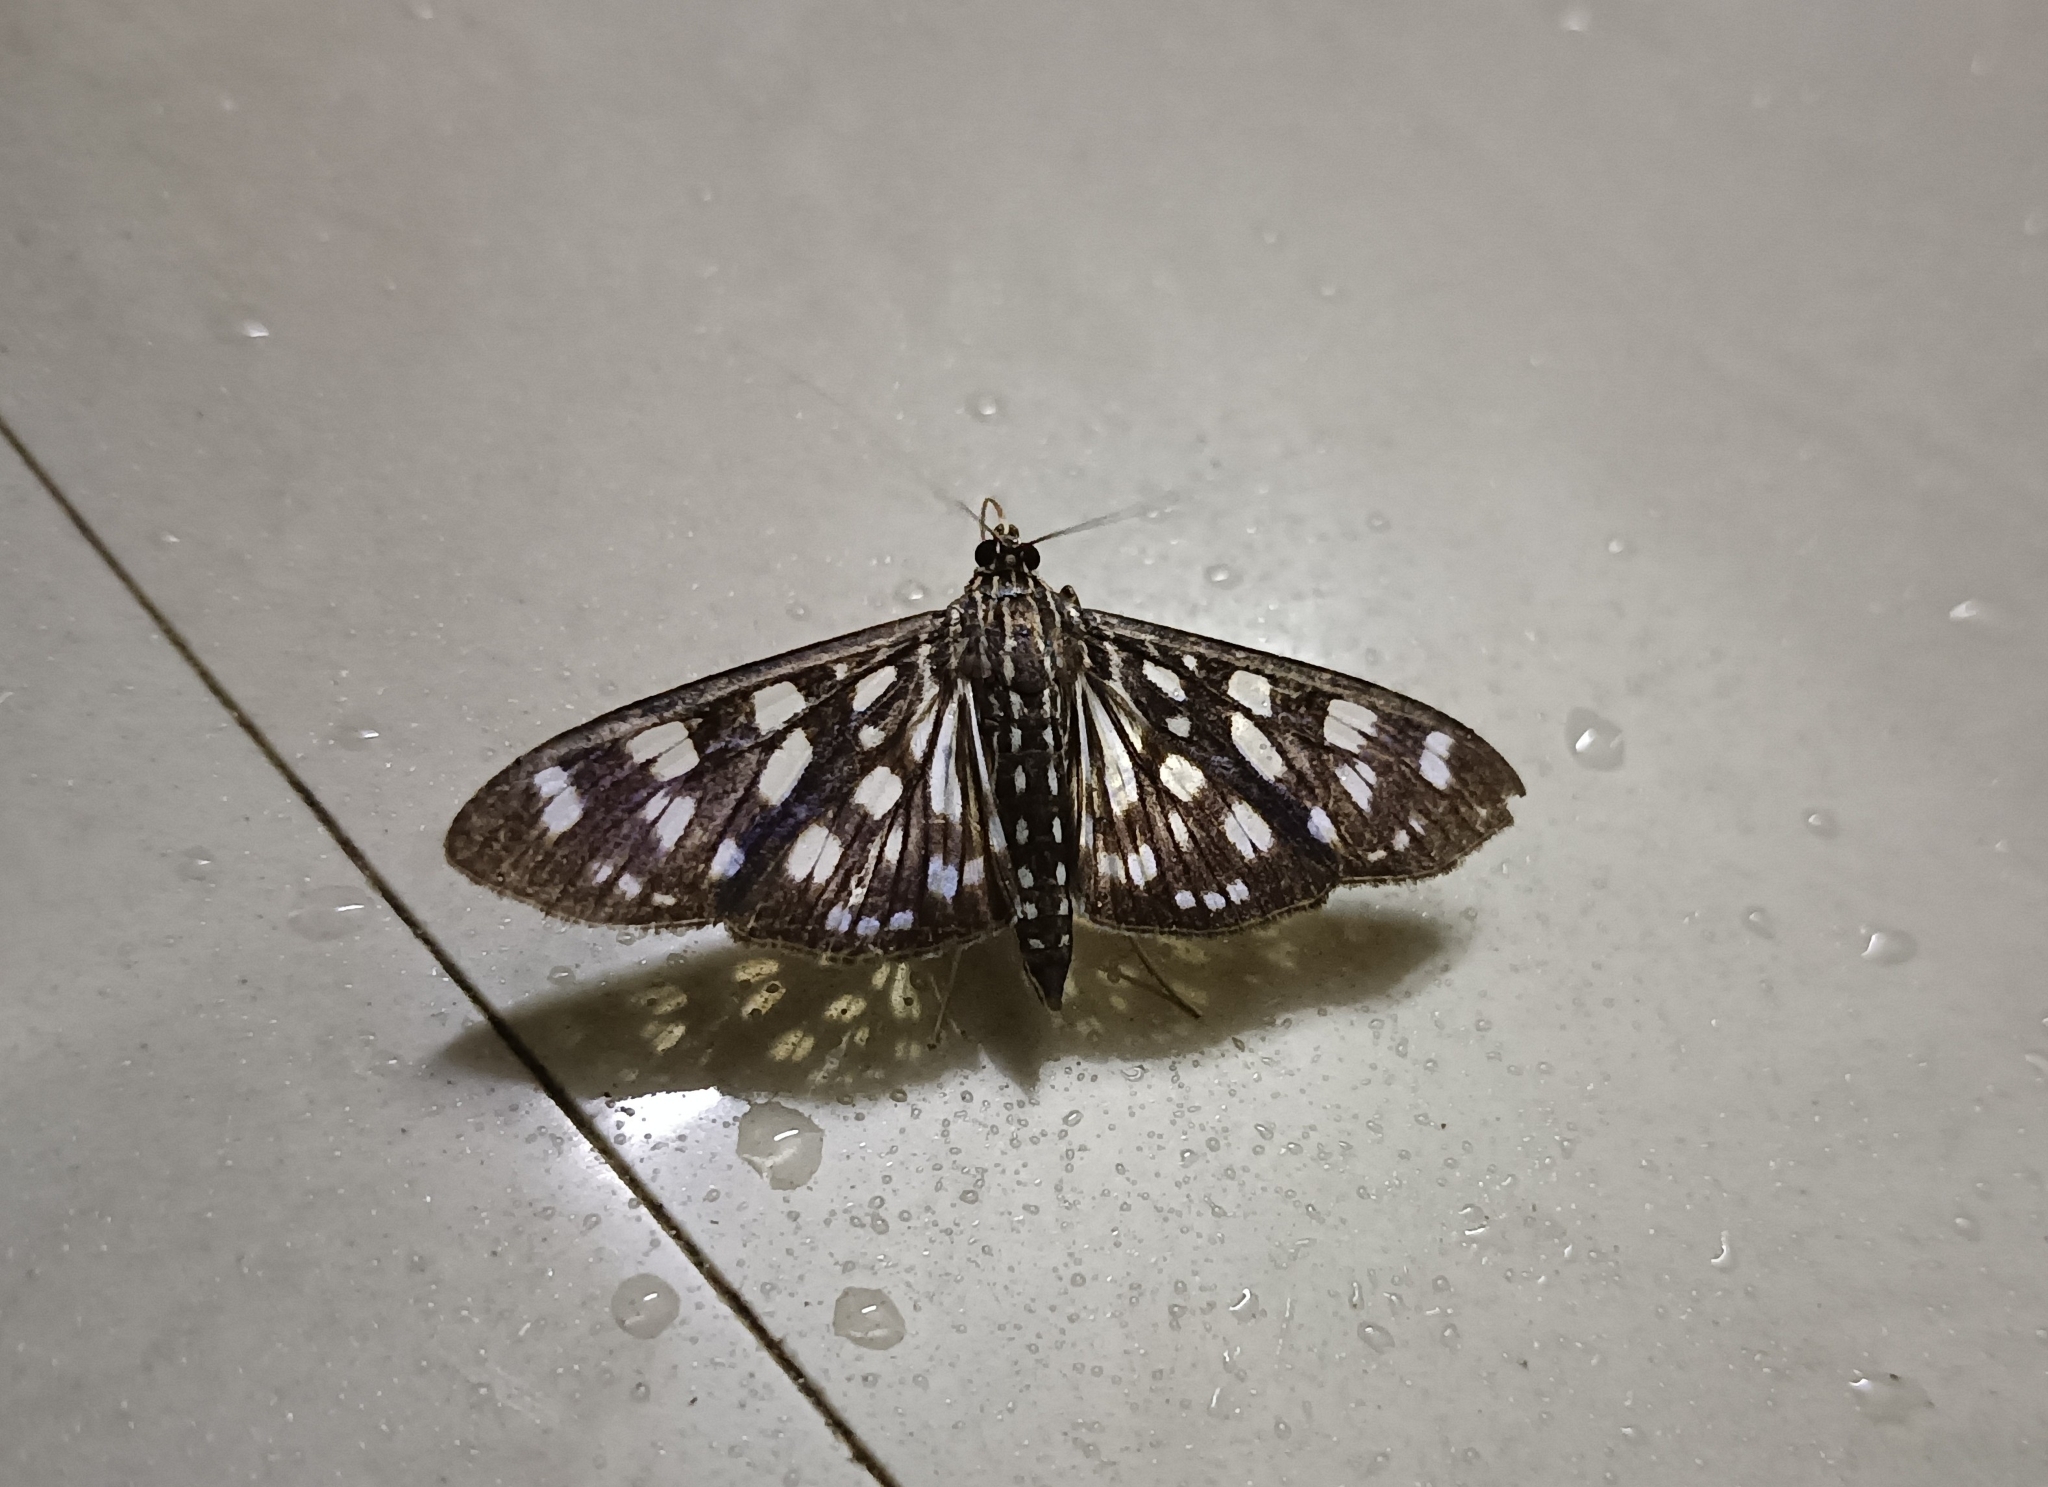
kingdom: Animalia
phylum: Arthropoda
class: Insecta
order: Lepidoptera
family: Crambidae
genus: Pygospila
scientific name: Pygospila tyres
